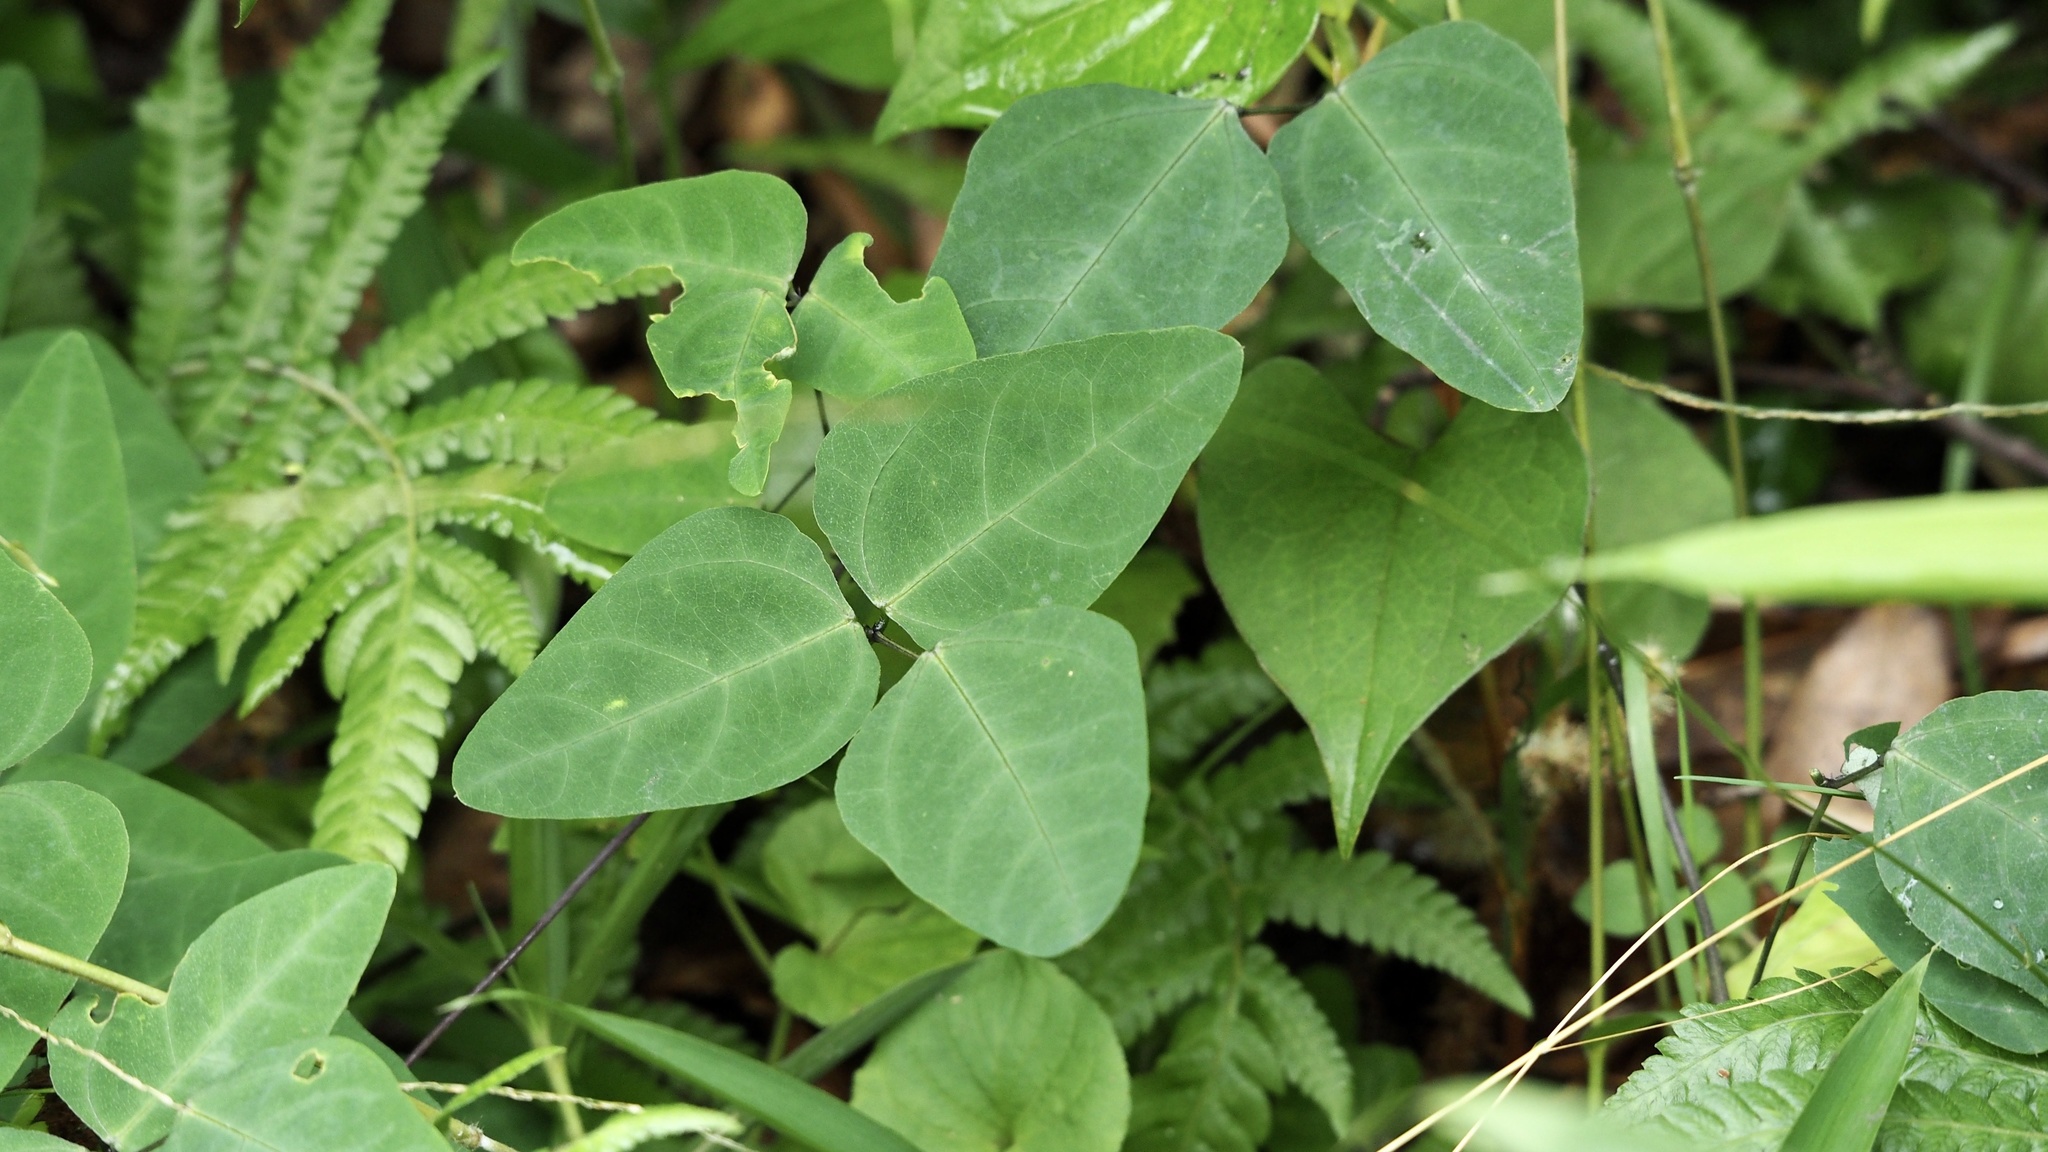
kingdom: Plantae
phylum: Tracheophyta
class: Magnoliopsida
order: Fabales
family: Fabaceae
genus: Dumasia
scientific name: Dumasia truncata
